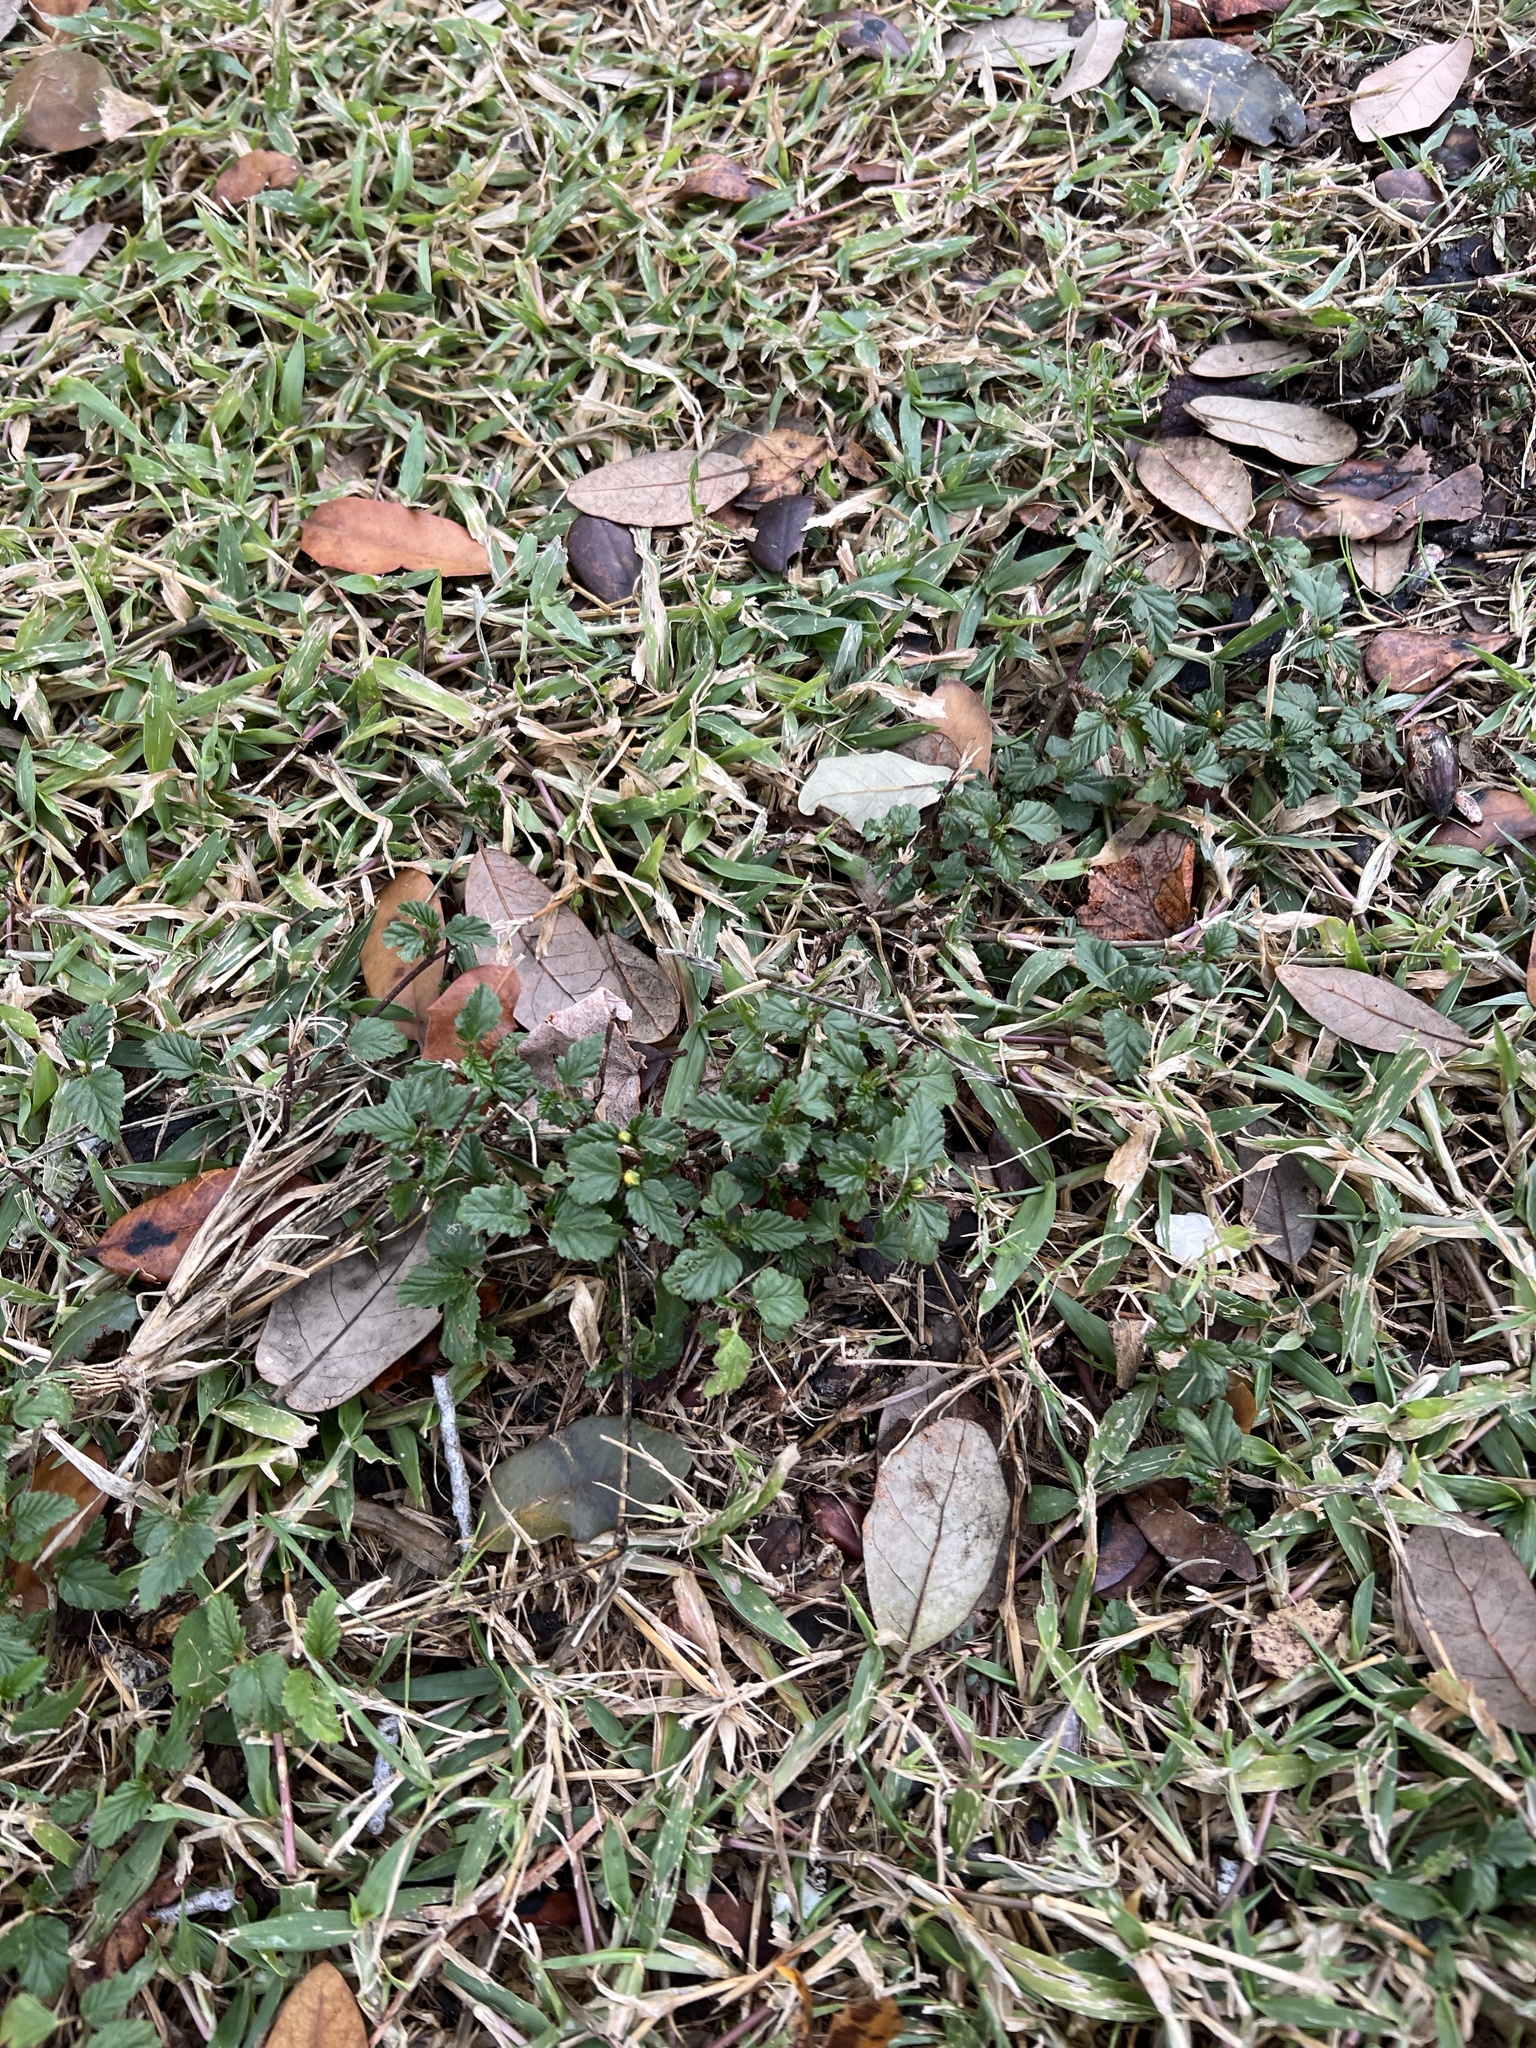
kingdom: Plantae
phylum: Tracheophyta
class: Magnoliopsida
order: Malvales
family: Malvaceae
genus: Malvastrum
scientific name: Malvastrum coromandelianum
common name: Threelobe false mallow
